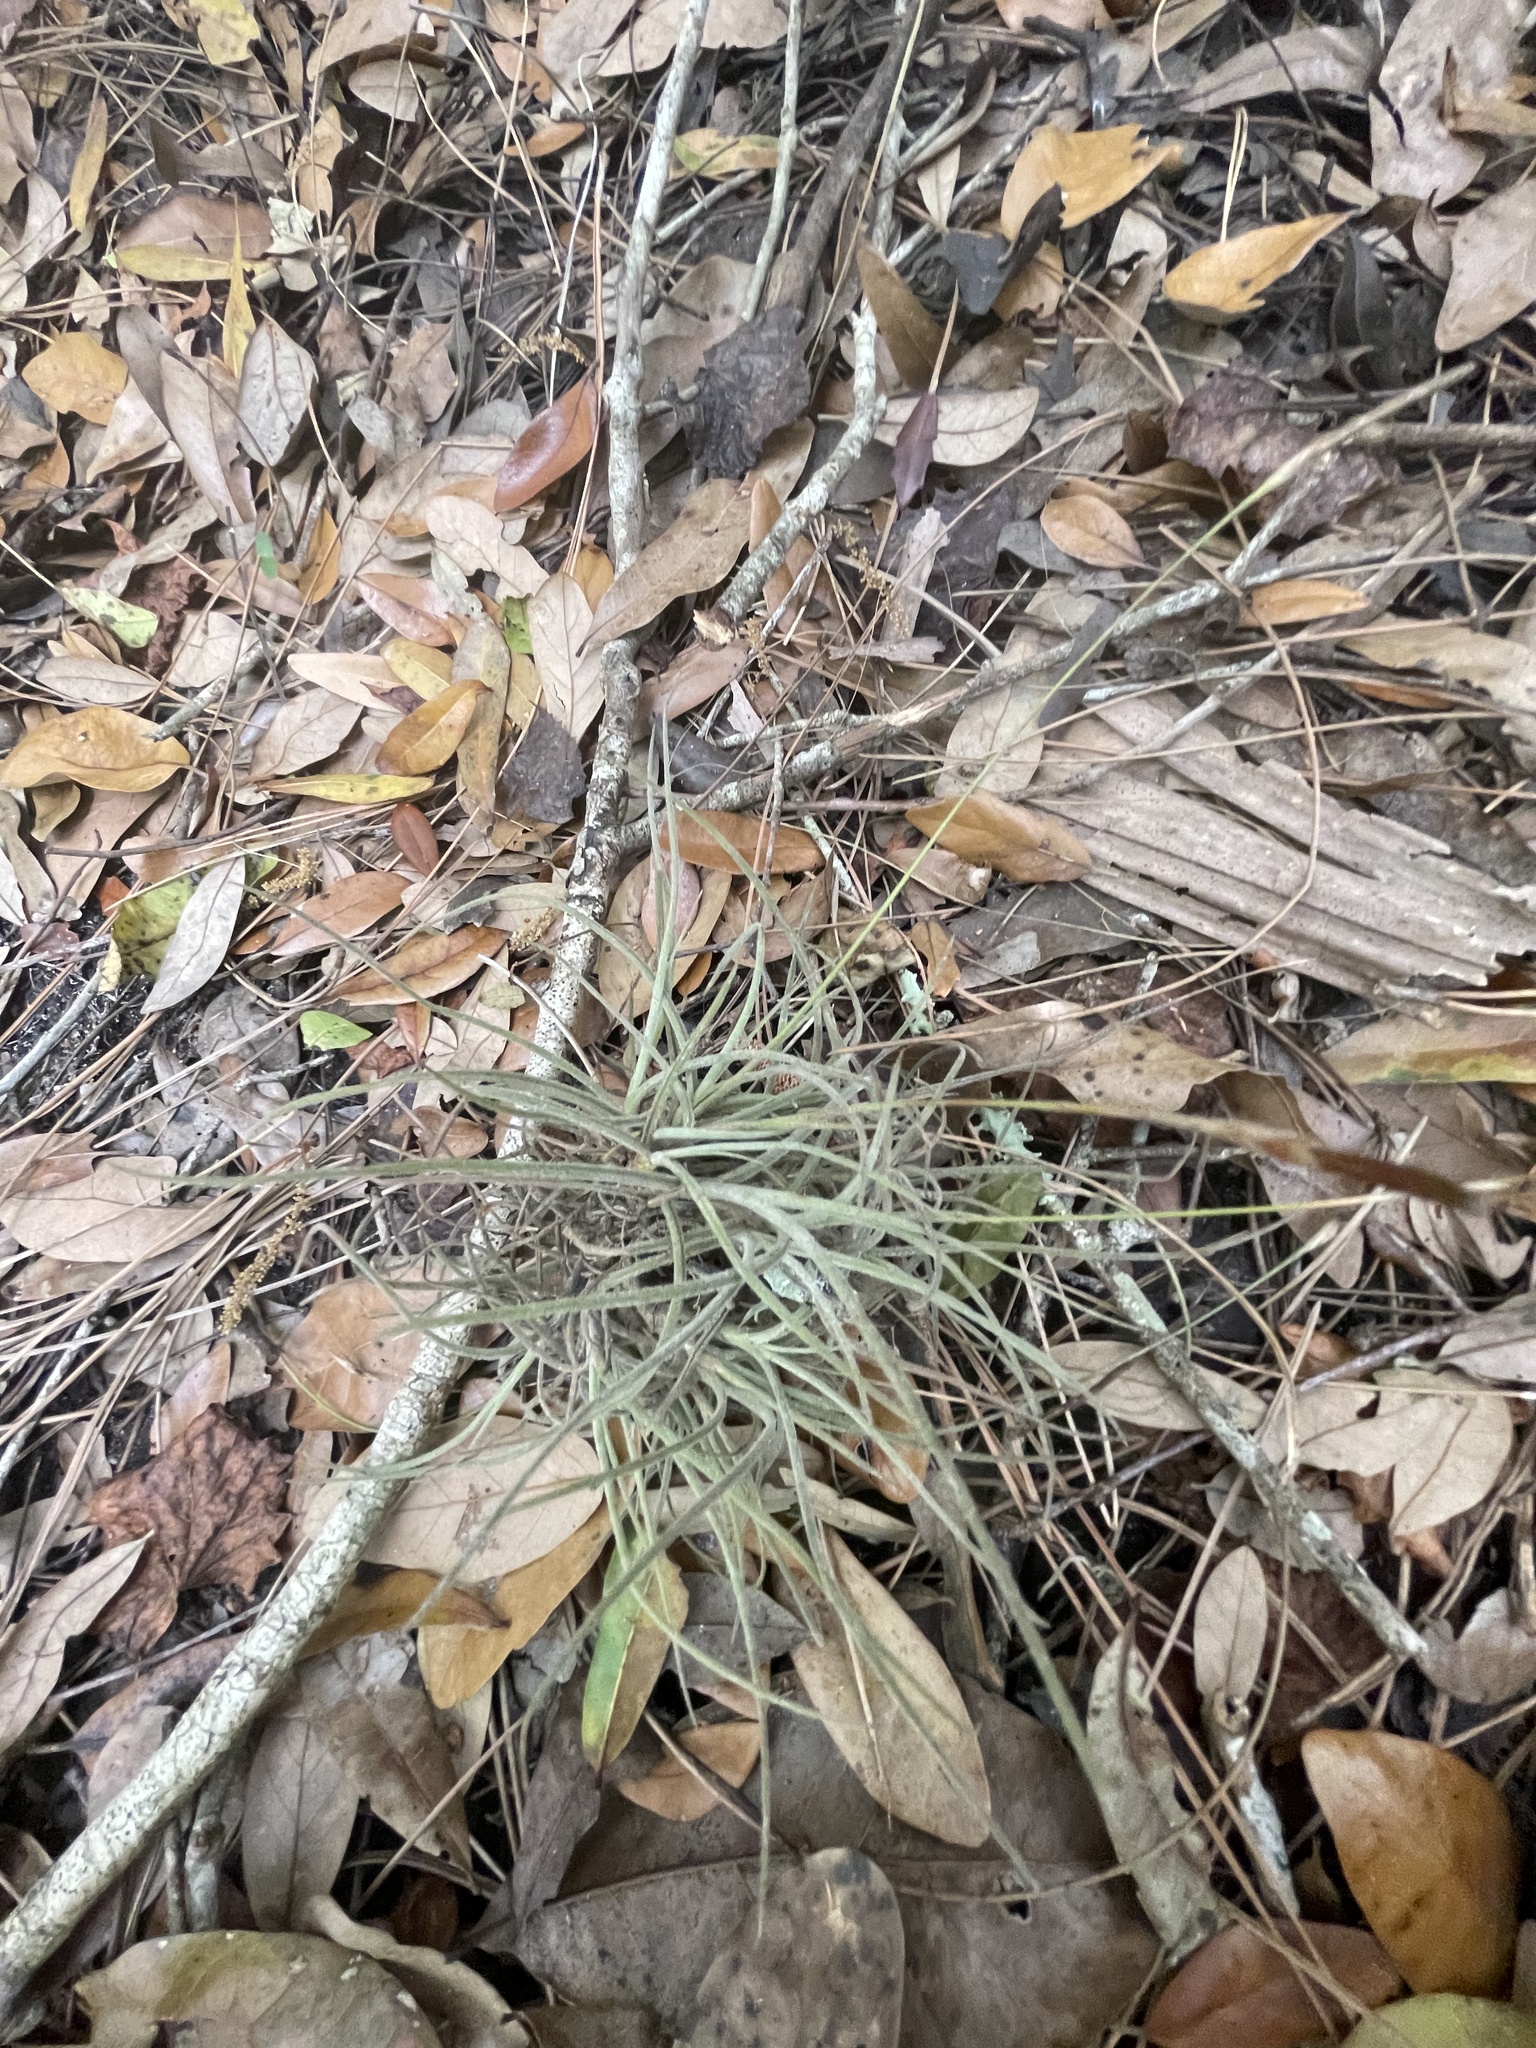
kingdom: Plantae
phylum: Tracheophyta
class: Liliopsida
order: Poales
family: Bromeliaceae
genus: Tillandsia
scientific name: Tillandsia recurvata
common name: Small ballmoss
